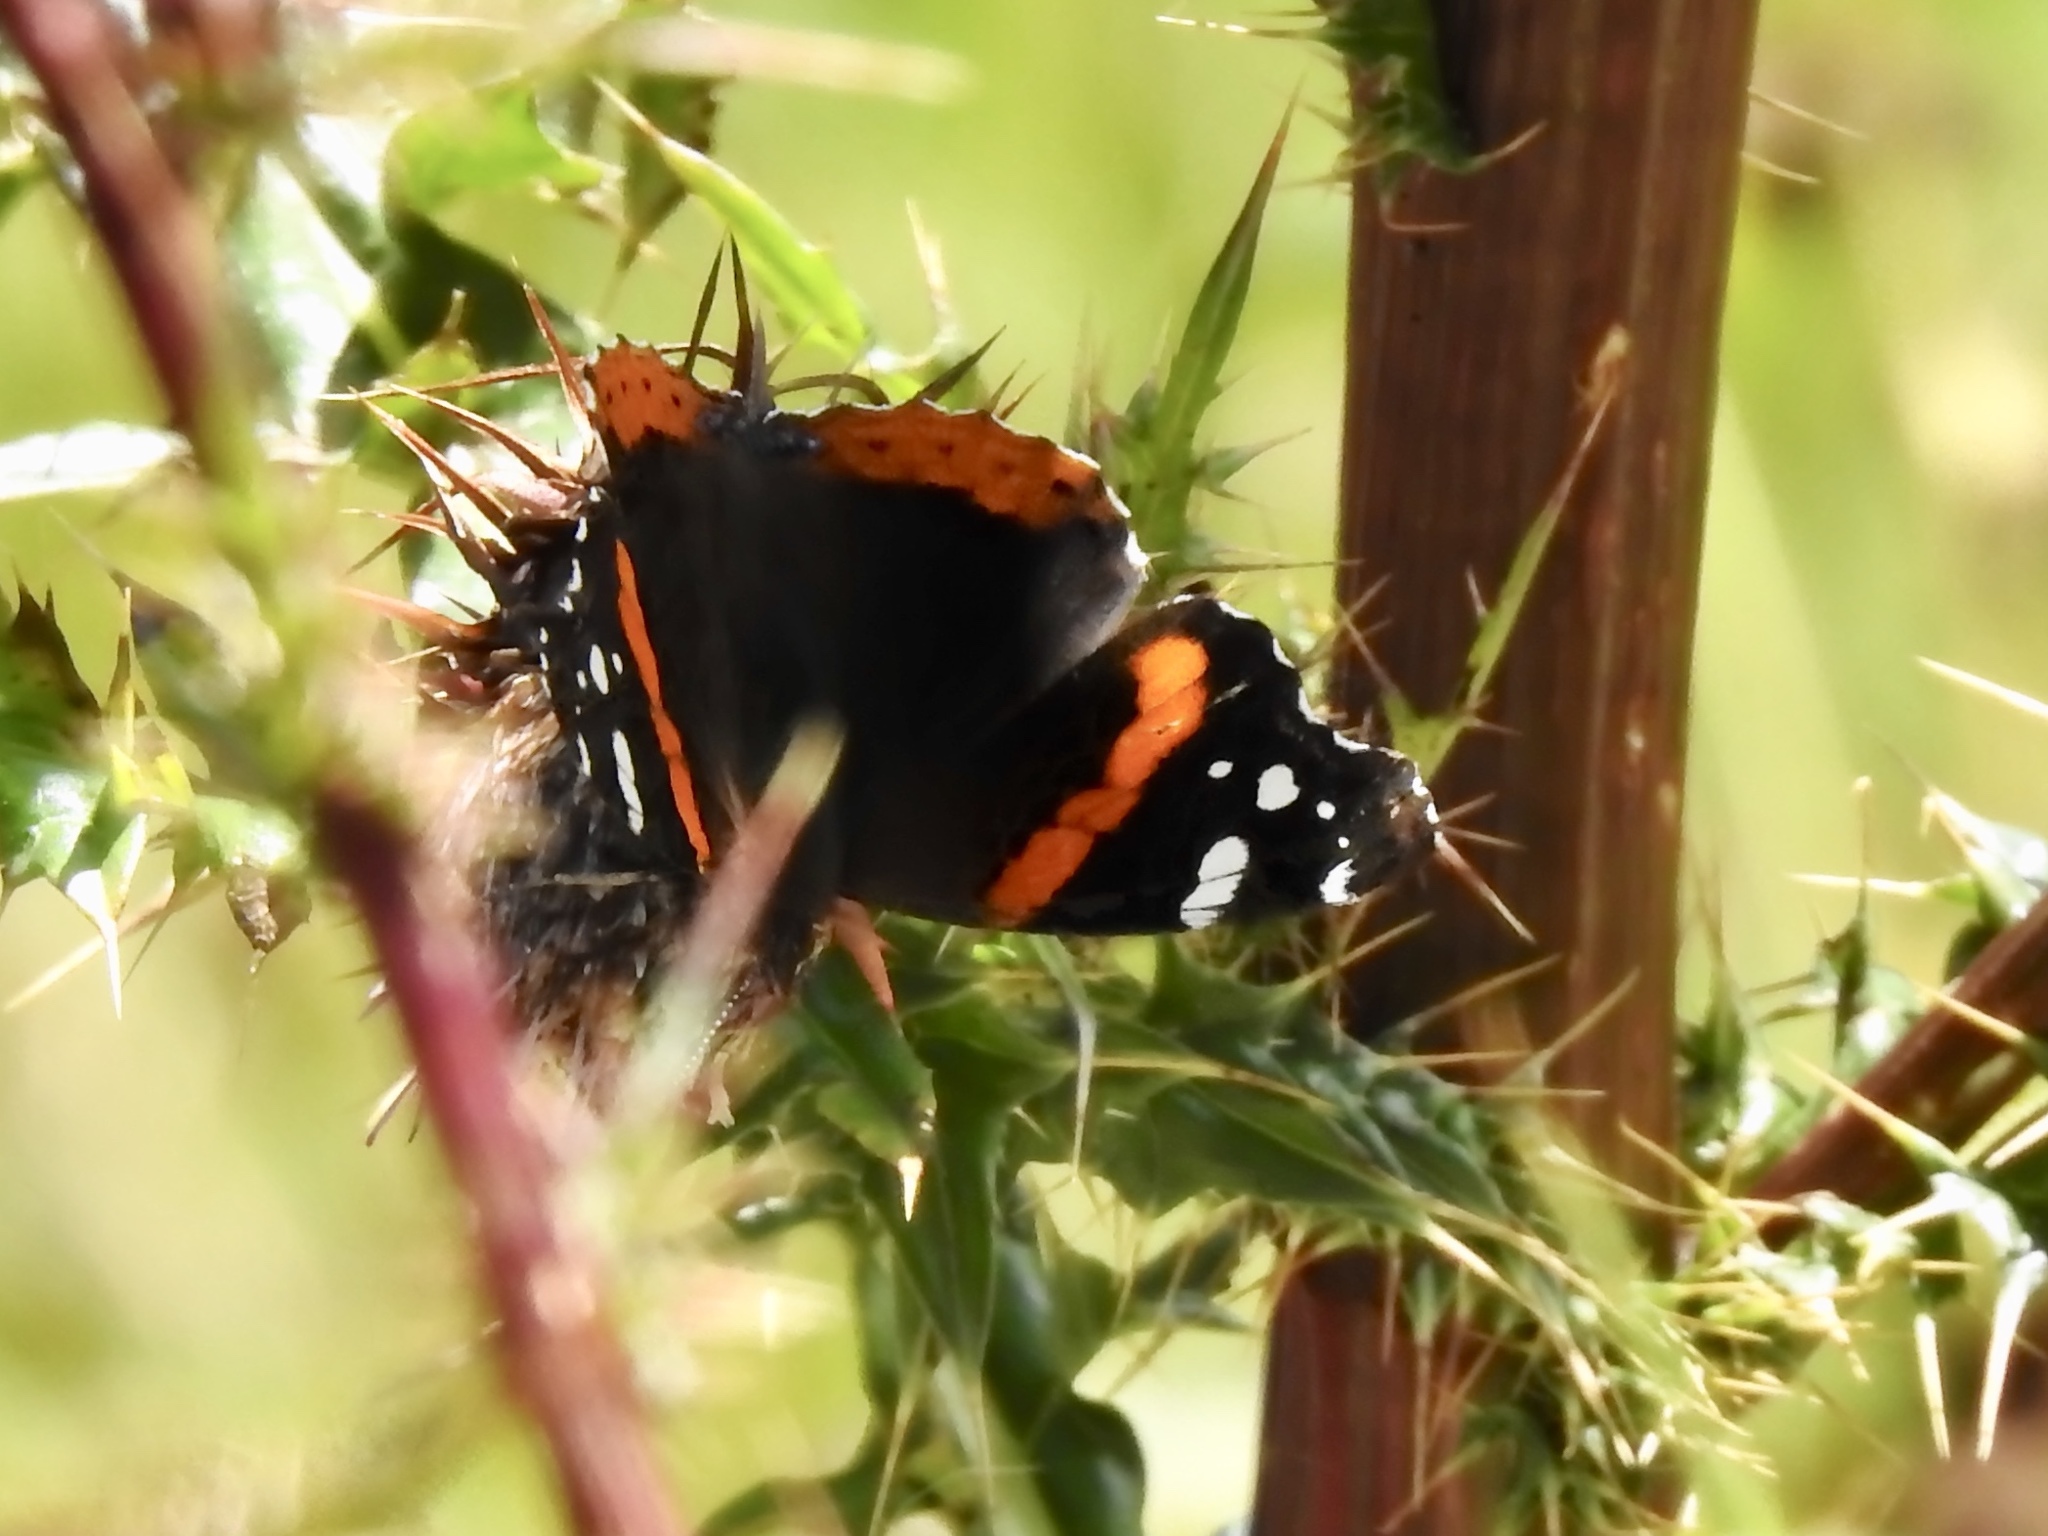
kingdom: Animalia
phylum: Arthropoda
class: Insecta
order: Lepidoptera
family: Nymphalidae
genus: Vanessa
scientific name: Vanessa atalanta
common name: Red admiral
